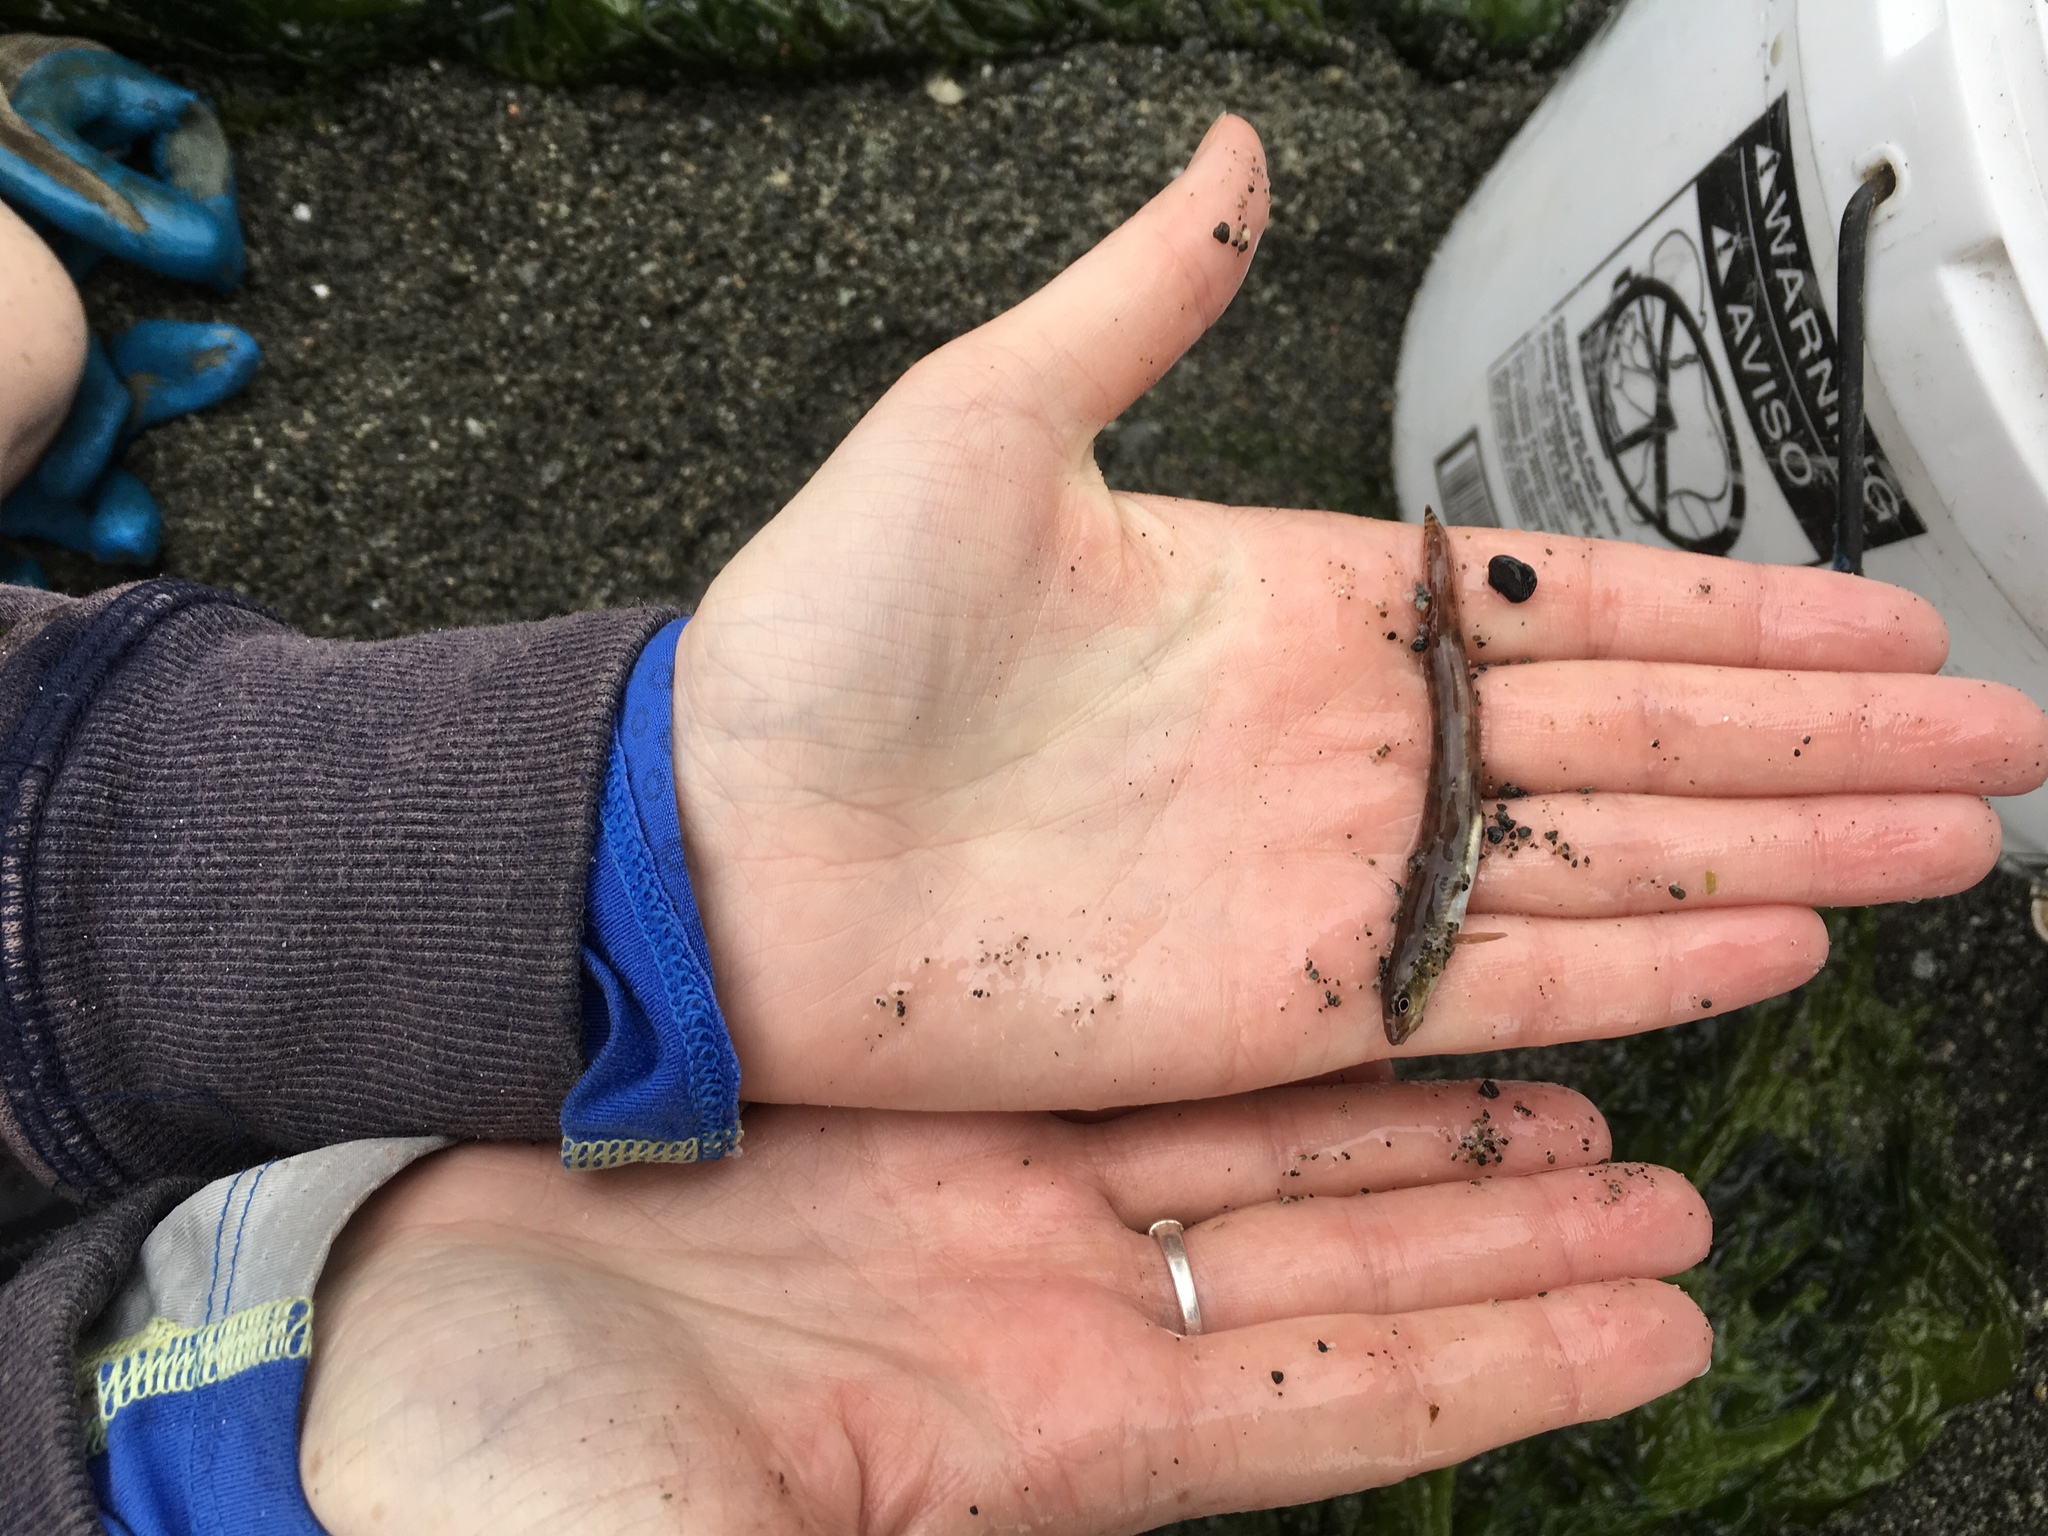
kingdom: Animalia
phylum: Chordata
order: Perciformes
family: Stichaeidae
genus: Lumpenus
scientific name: Lumpenus sagitta
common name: Snake prickleback
